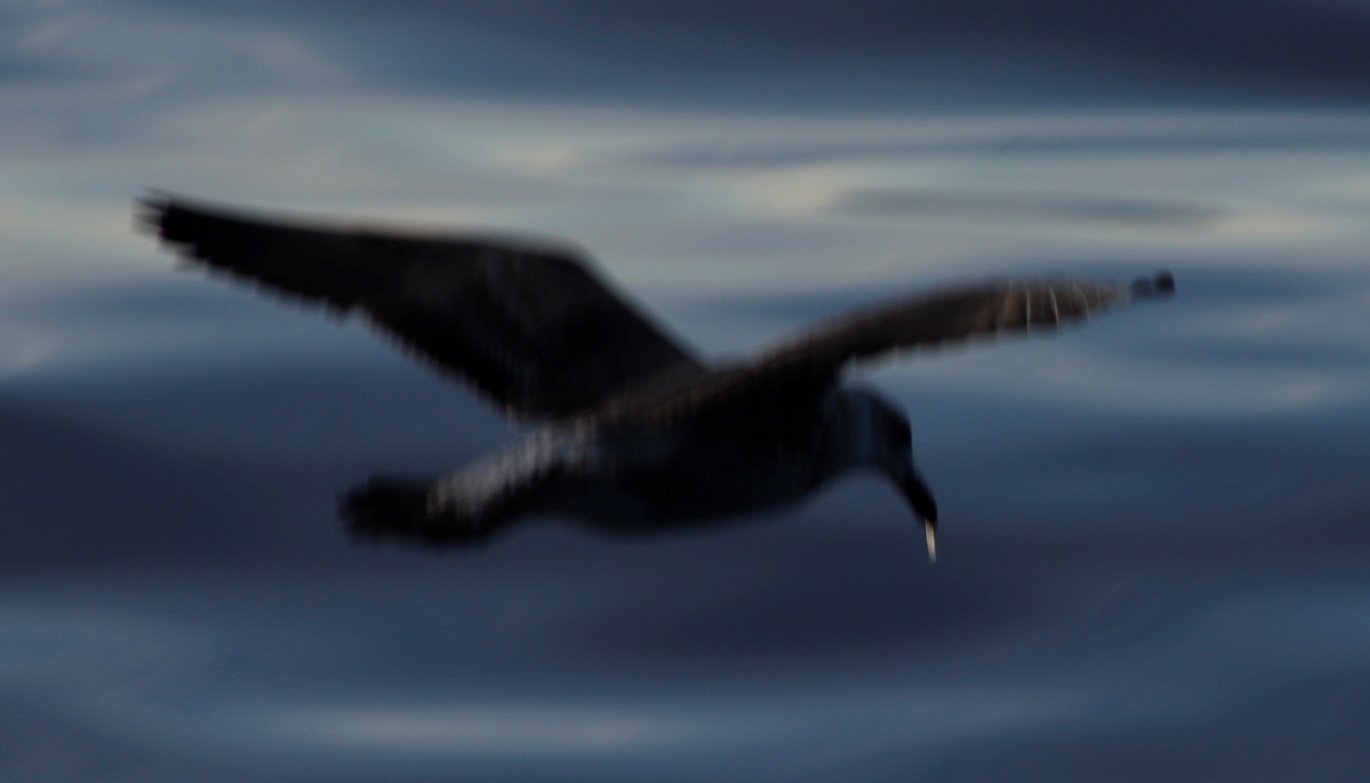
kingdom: Animalia
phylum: Chordata
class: Aves
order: Charadriiformes
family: Laridae
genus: Larus
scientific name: Larus dominicanus
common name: Kelp gull
